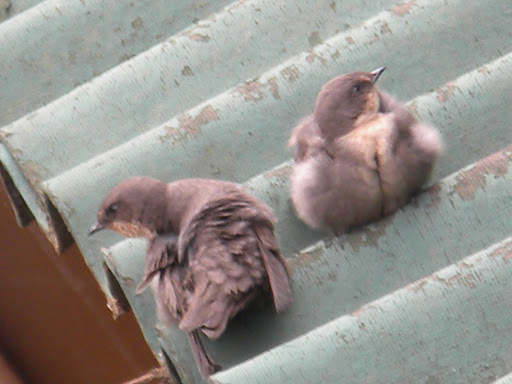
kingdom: Animalia
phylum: Chordata
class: Aves
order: Passeriformes
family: Hirundinidae
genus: Ptyonoprogne
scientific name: Ptyonoprogne fuligula
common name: Rock martin
